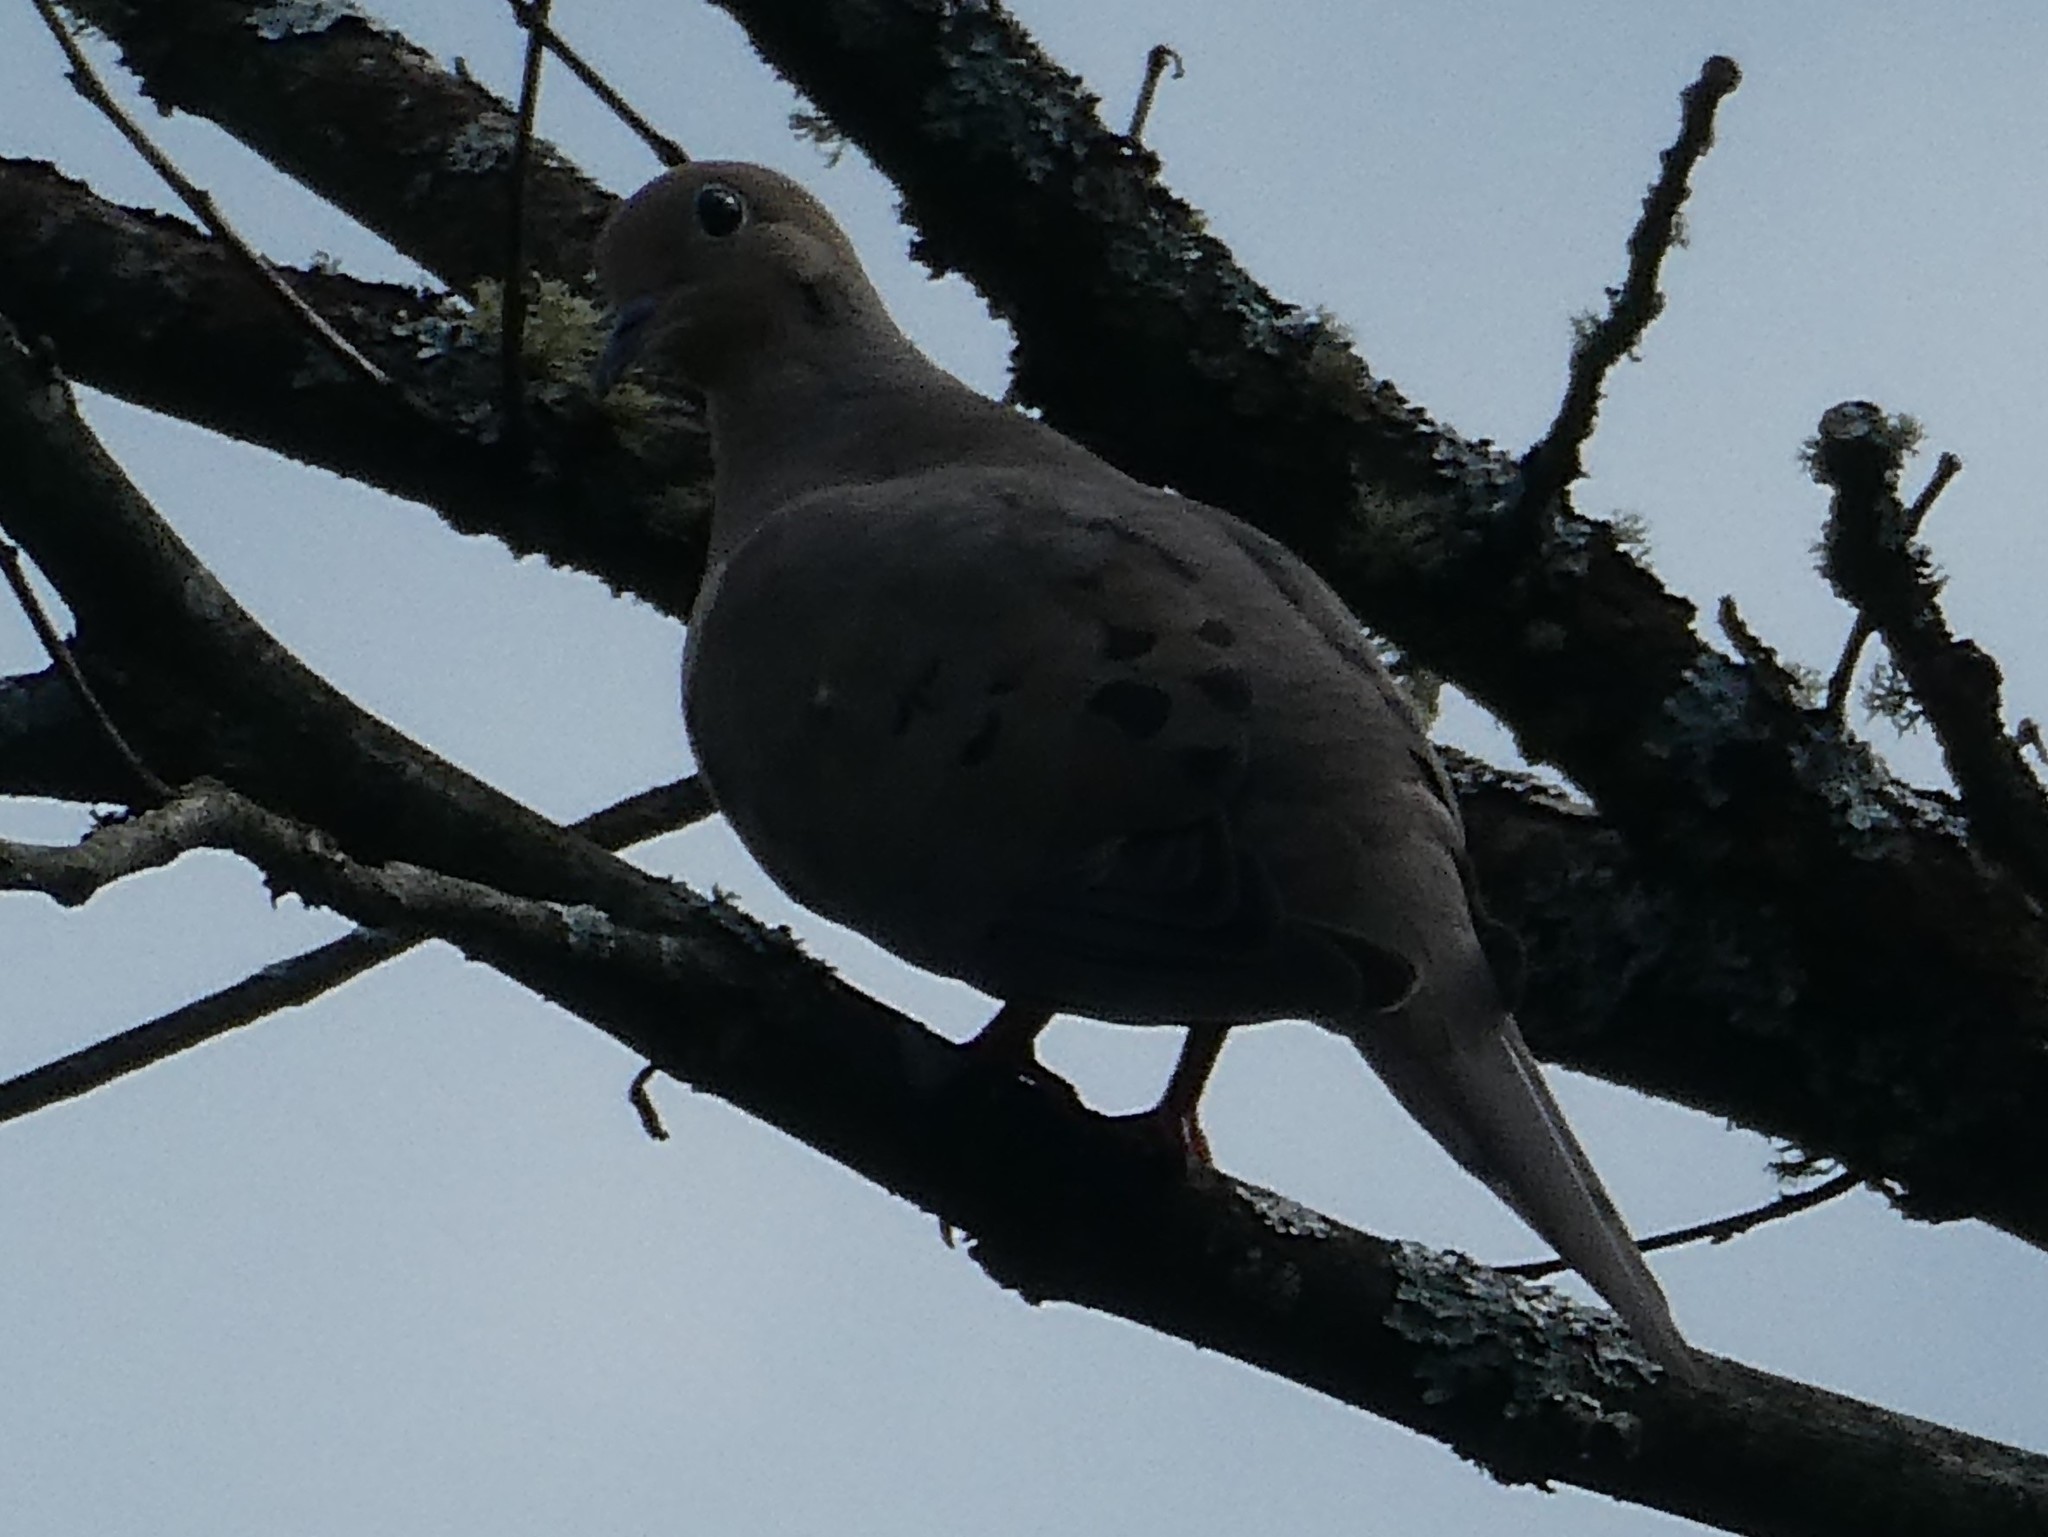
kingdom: Animalia
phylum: Chordata
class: Aves
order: Columbiformes
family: Columbidae
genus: Zenaida
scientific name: Zenaida macroura
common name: Mourning dove
